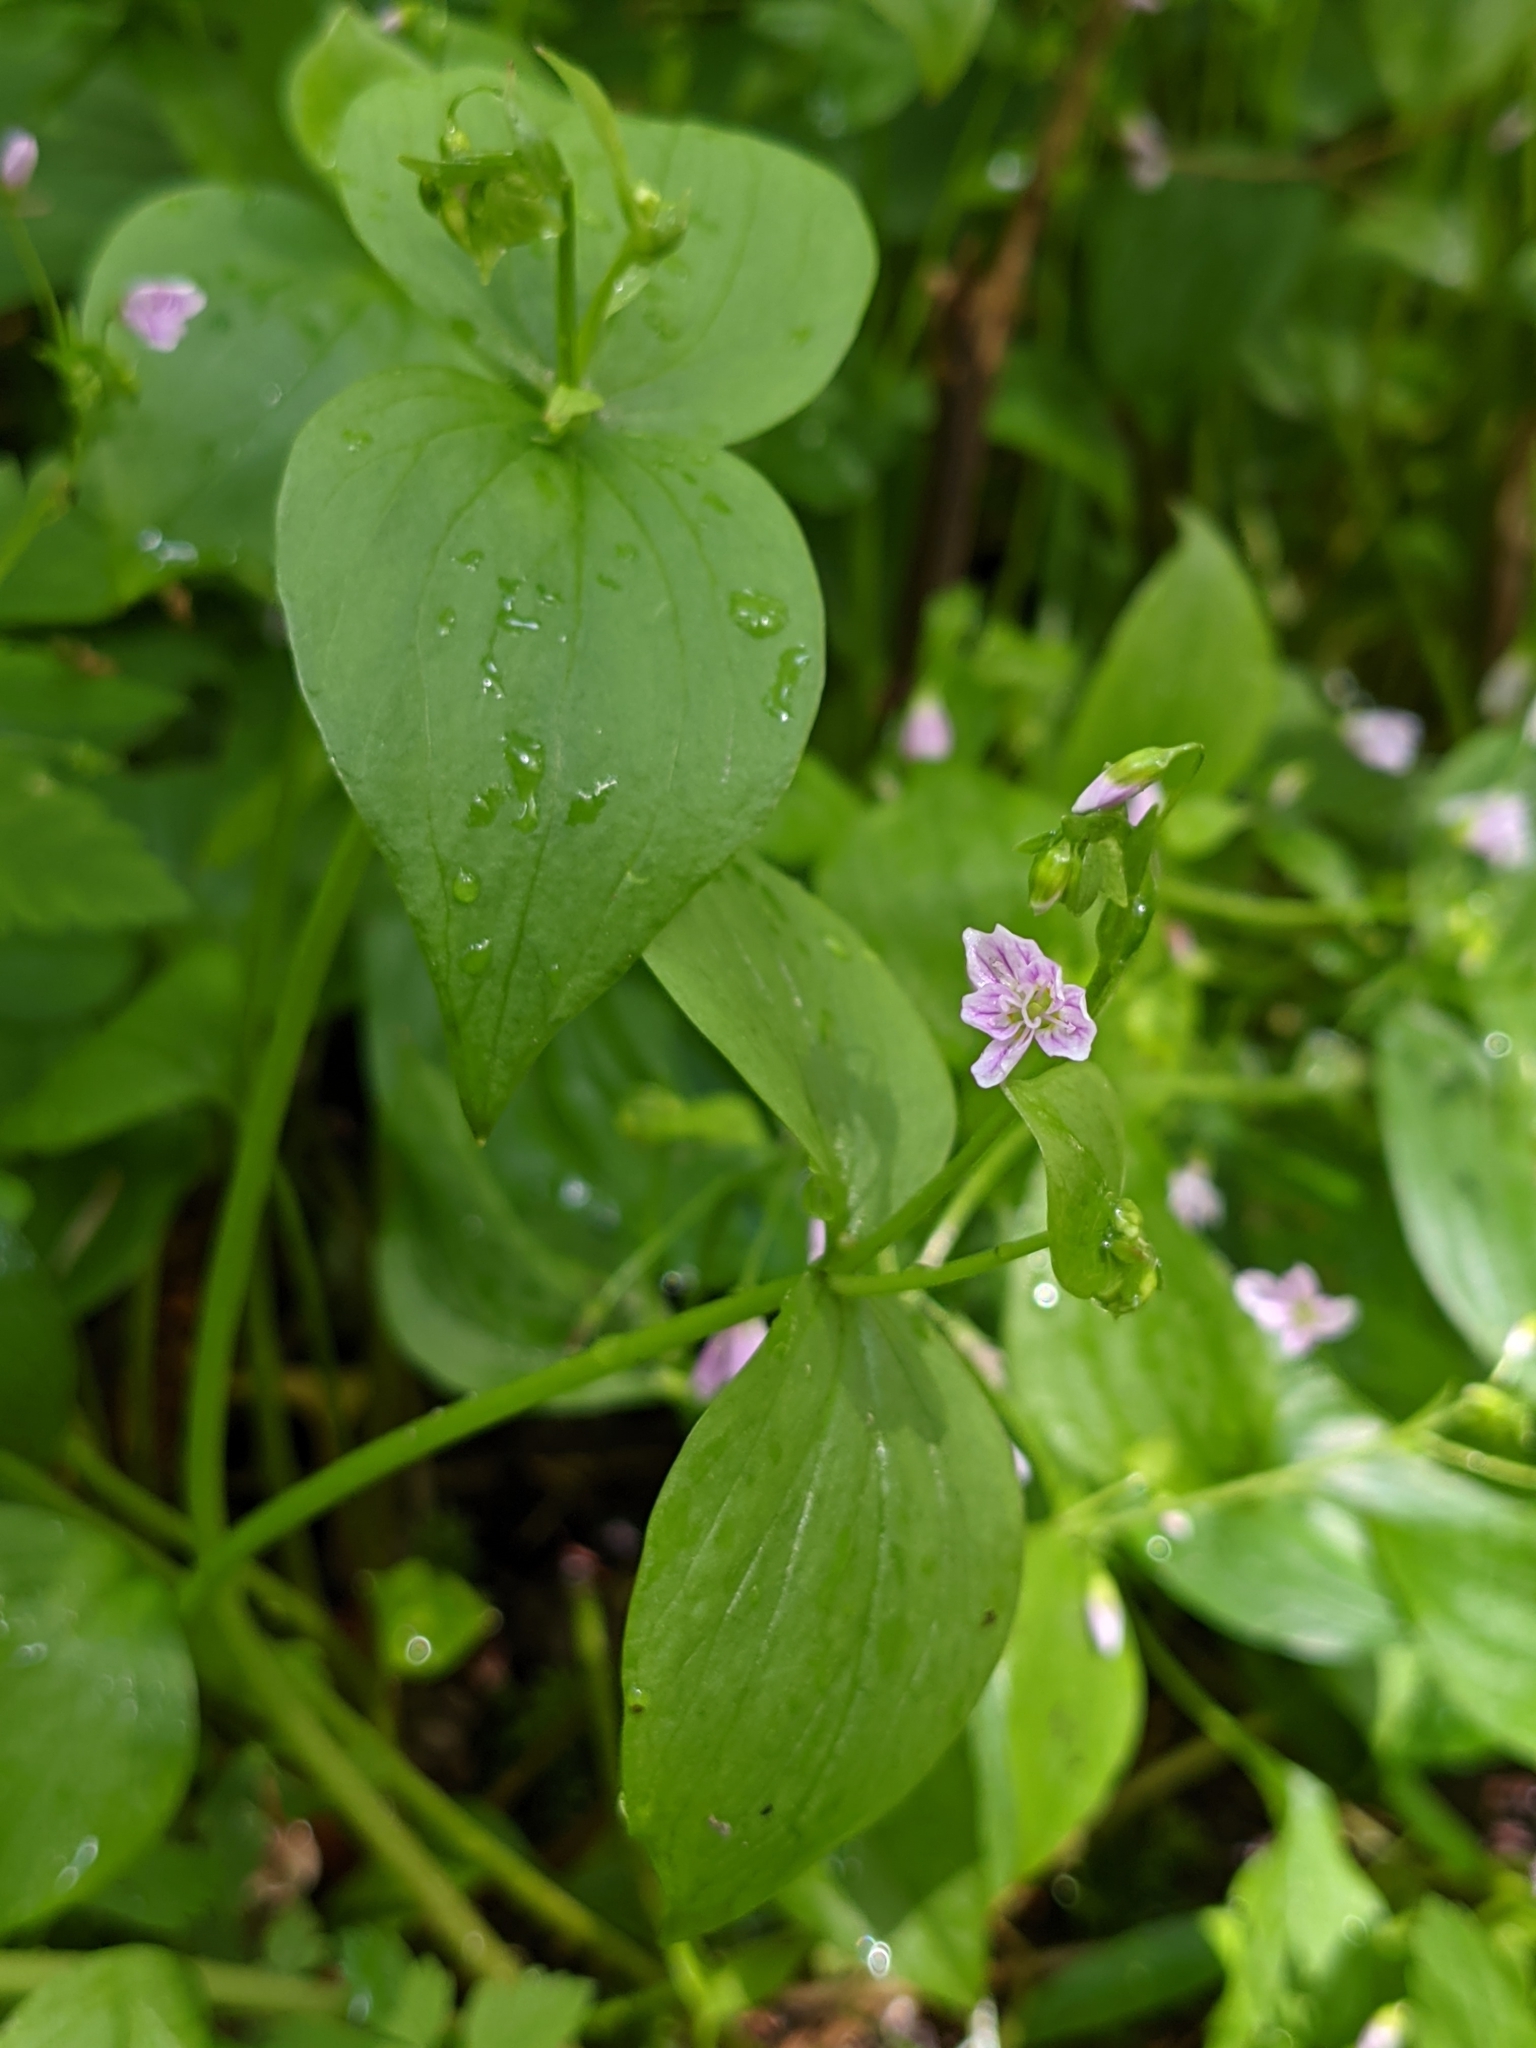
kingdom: Plantae
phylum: Tracheophyta
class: Magnoliopsida
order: Caryophyllales
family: Montiaceae
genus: Claytonia
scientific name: Claytonia sibirica
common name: Pink purslane
